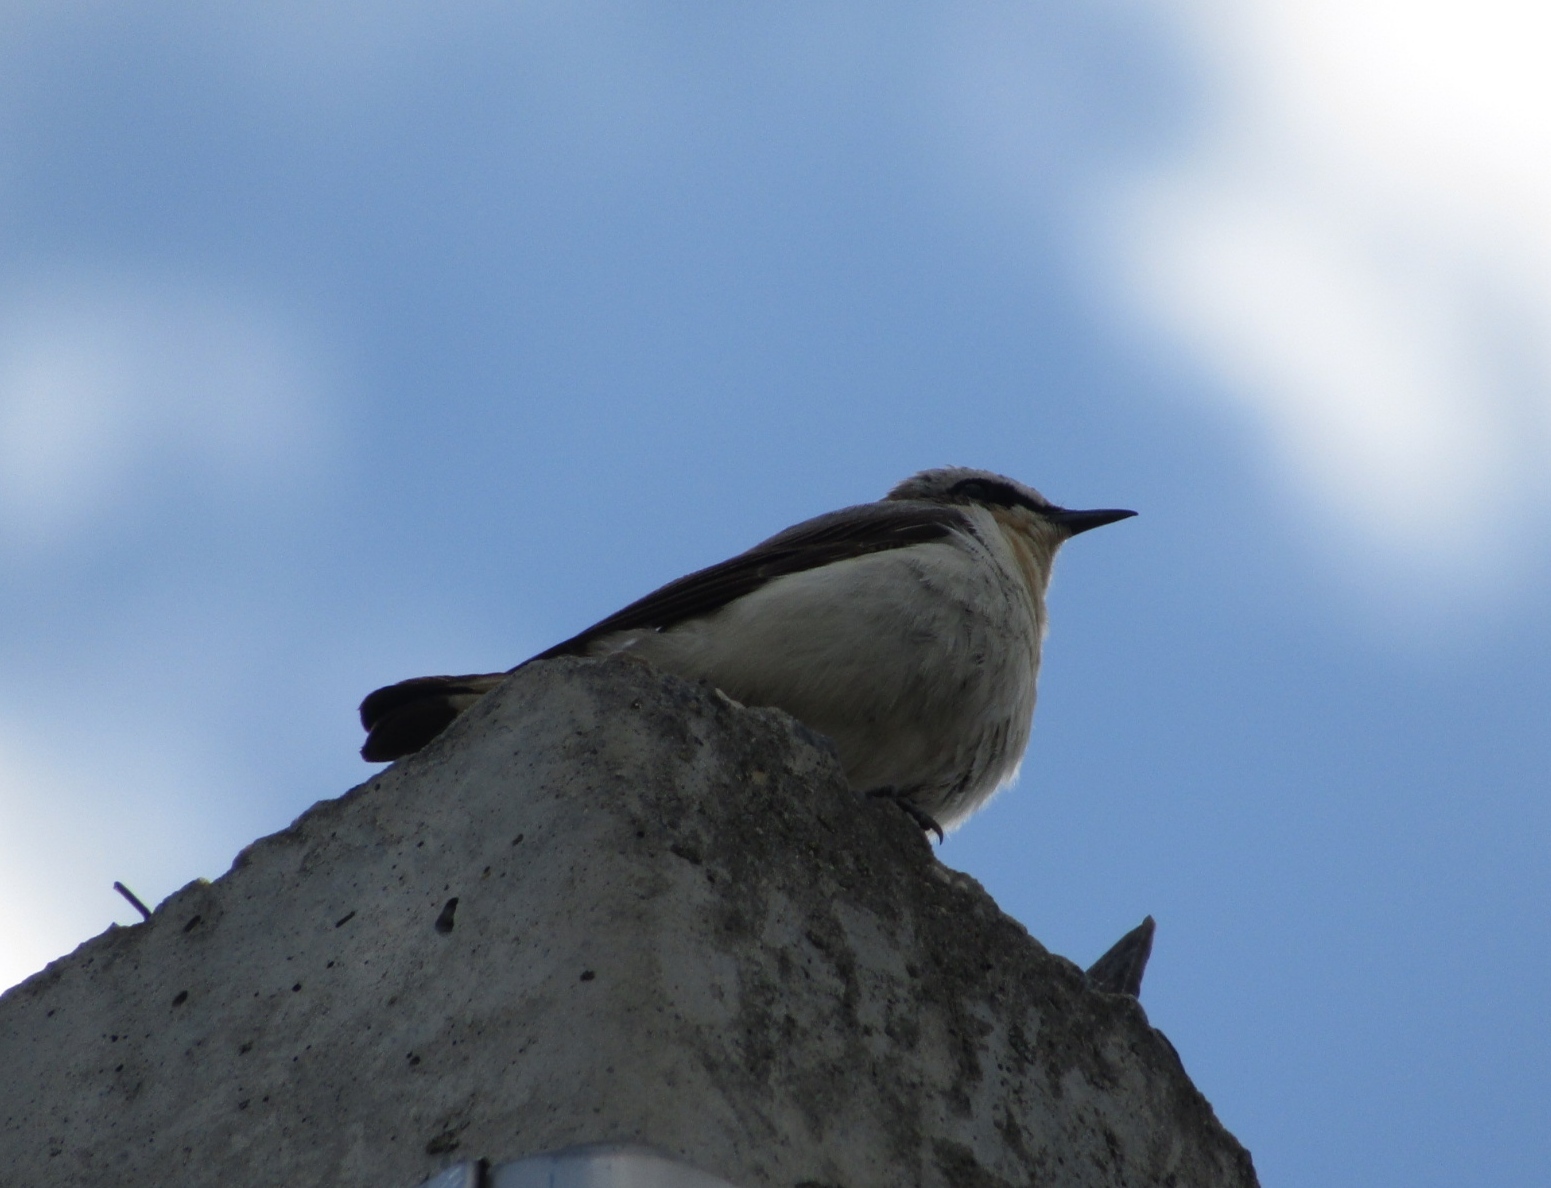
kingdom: Animalia
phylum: Chordata
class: Aves
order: Passeriformes
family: Muscicapidae
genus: Oenanthe
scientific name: Oenanthe oenanthe
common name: Northern wheatear
